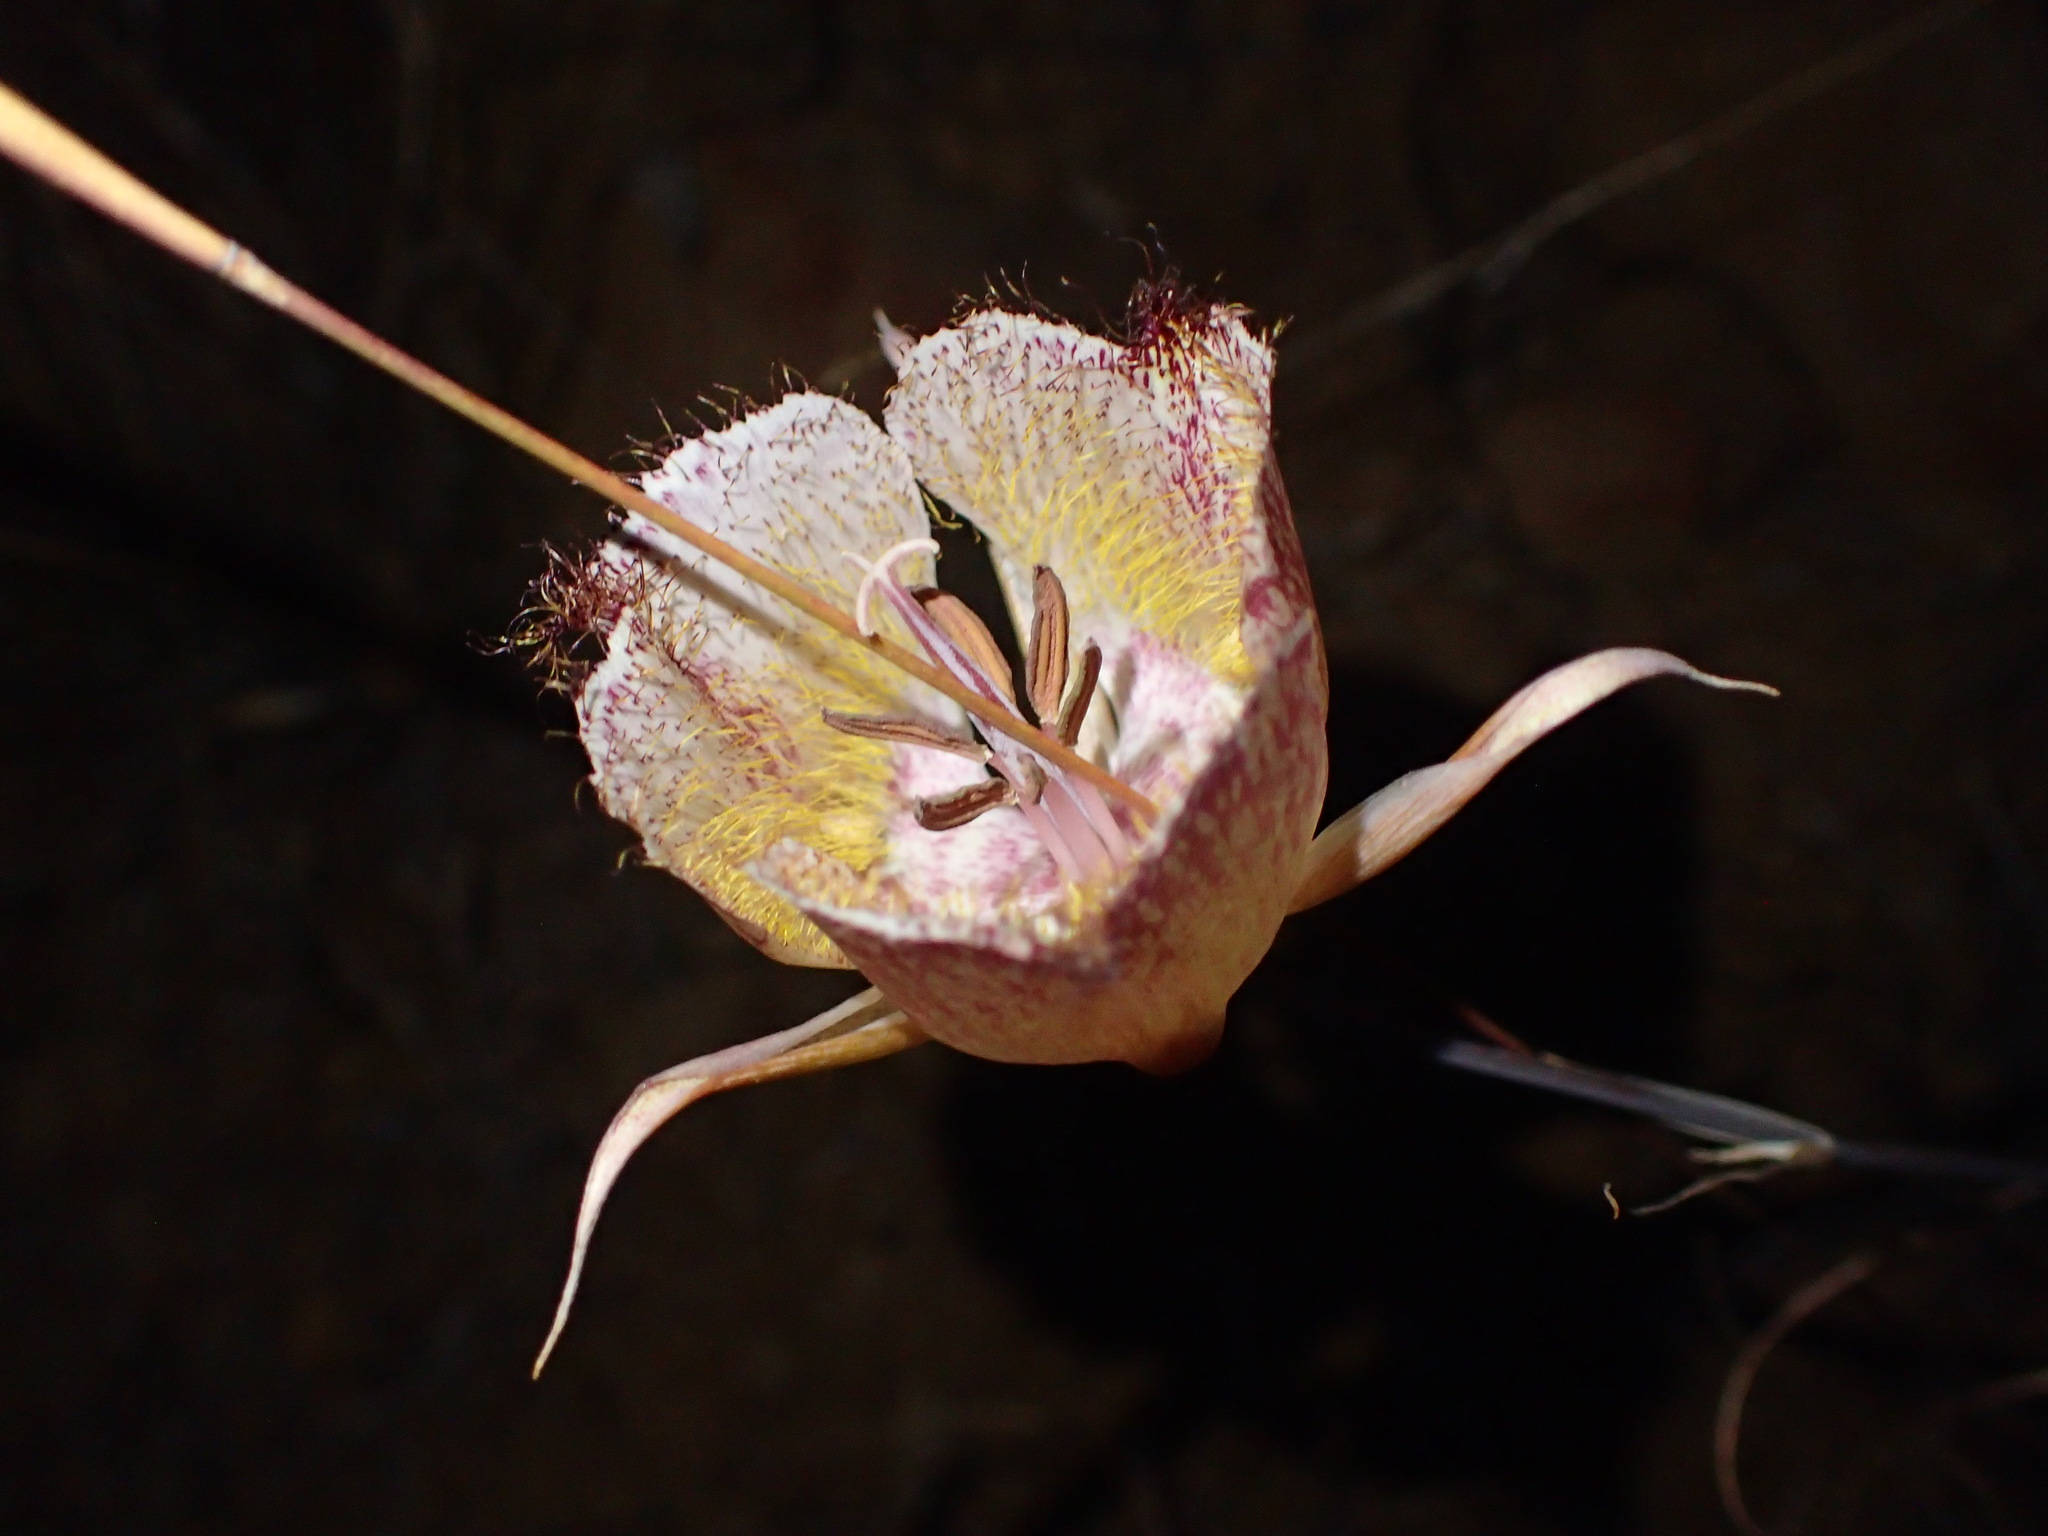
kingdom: Plantae
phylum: Tracheophyta
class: Liliopsida
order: Liliales
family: Liliaceae
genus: Calochortus
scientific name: Calochortus fimbriatus
